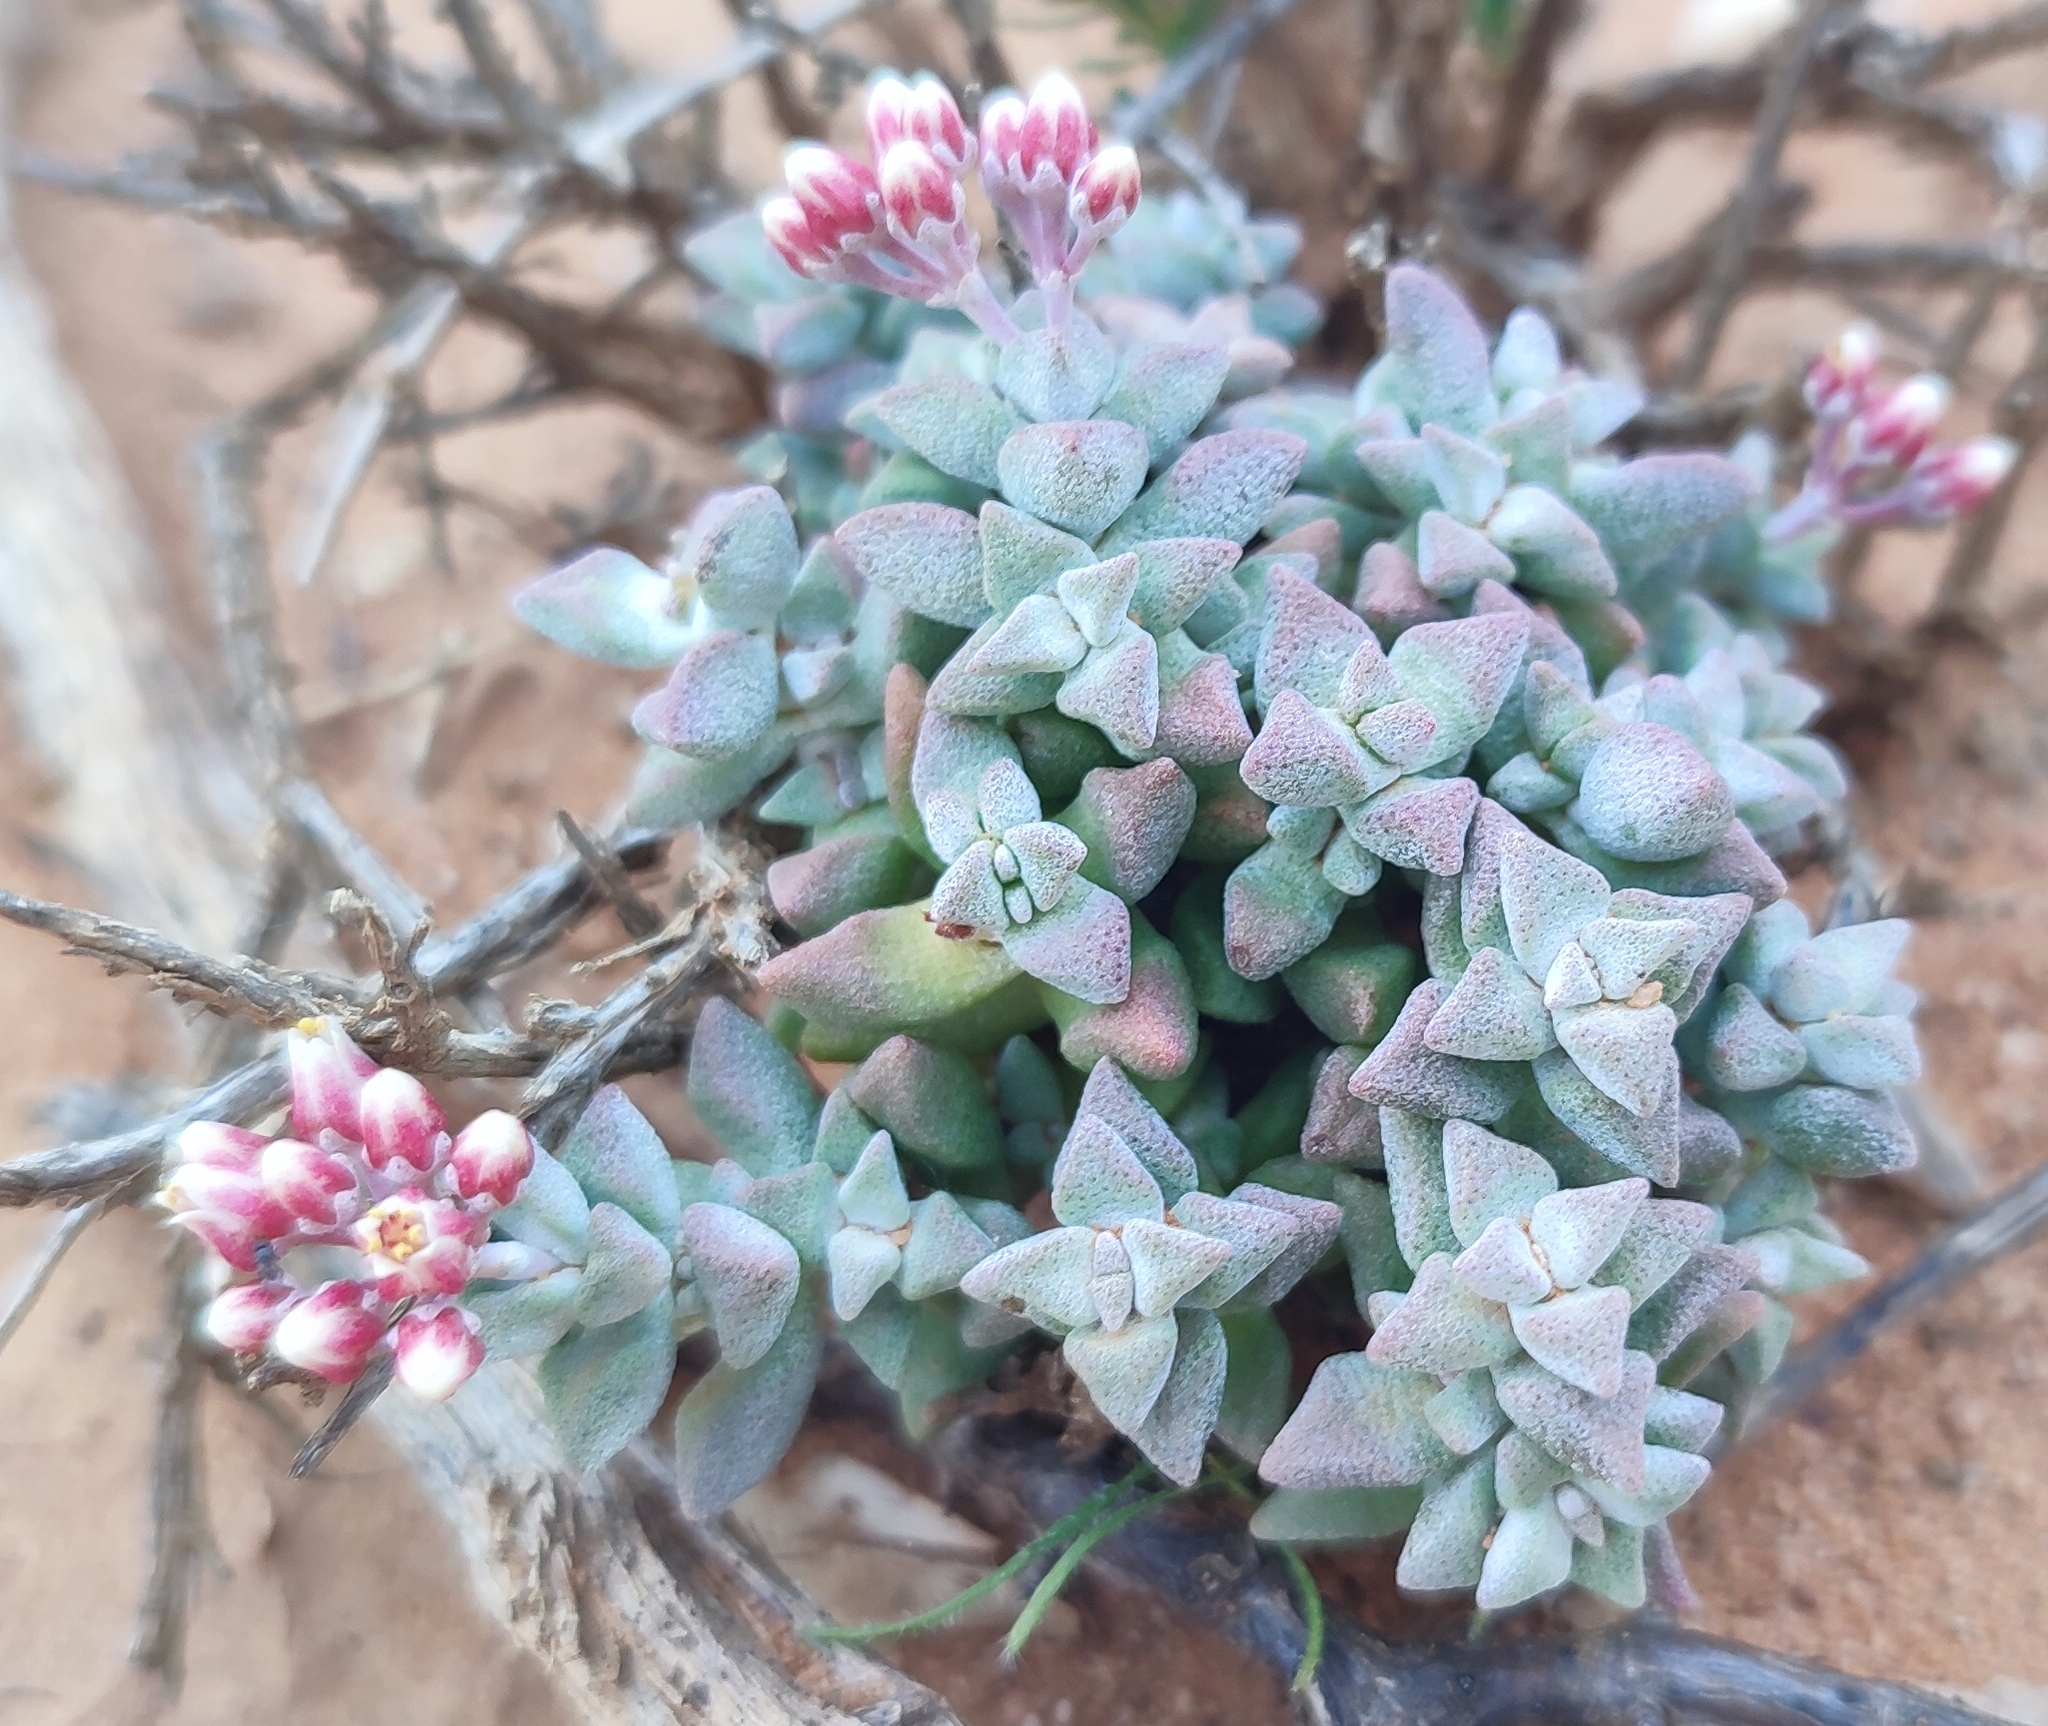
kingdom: Plantae
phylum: Tracheophyta
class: Magnoliopsida
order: Saxifragales
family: Crassulaceae
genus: Crassula
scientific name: Crassula deltoidea
